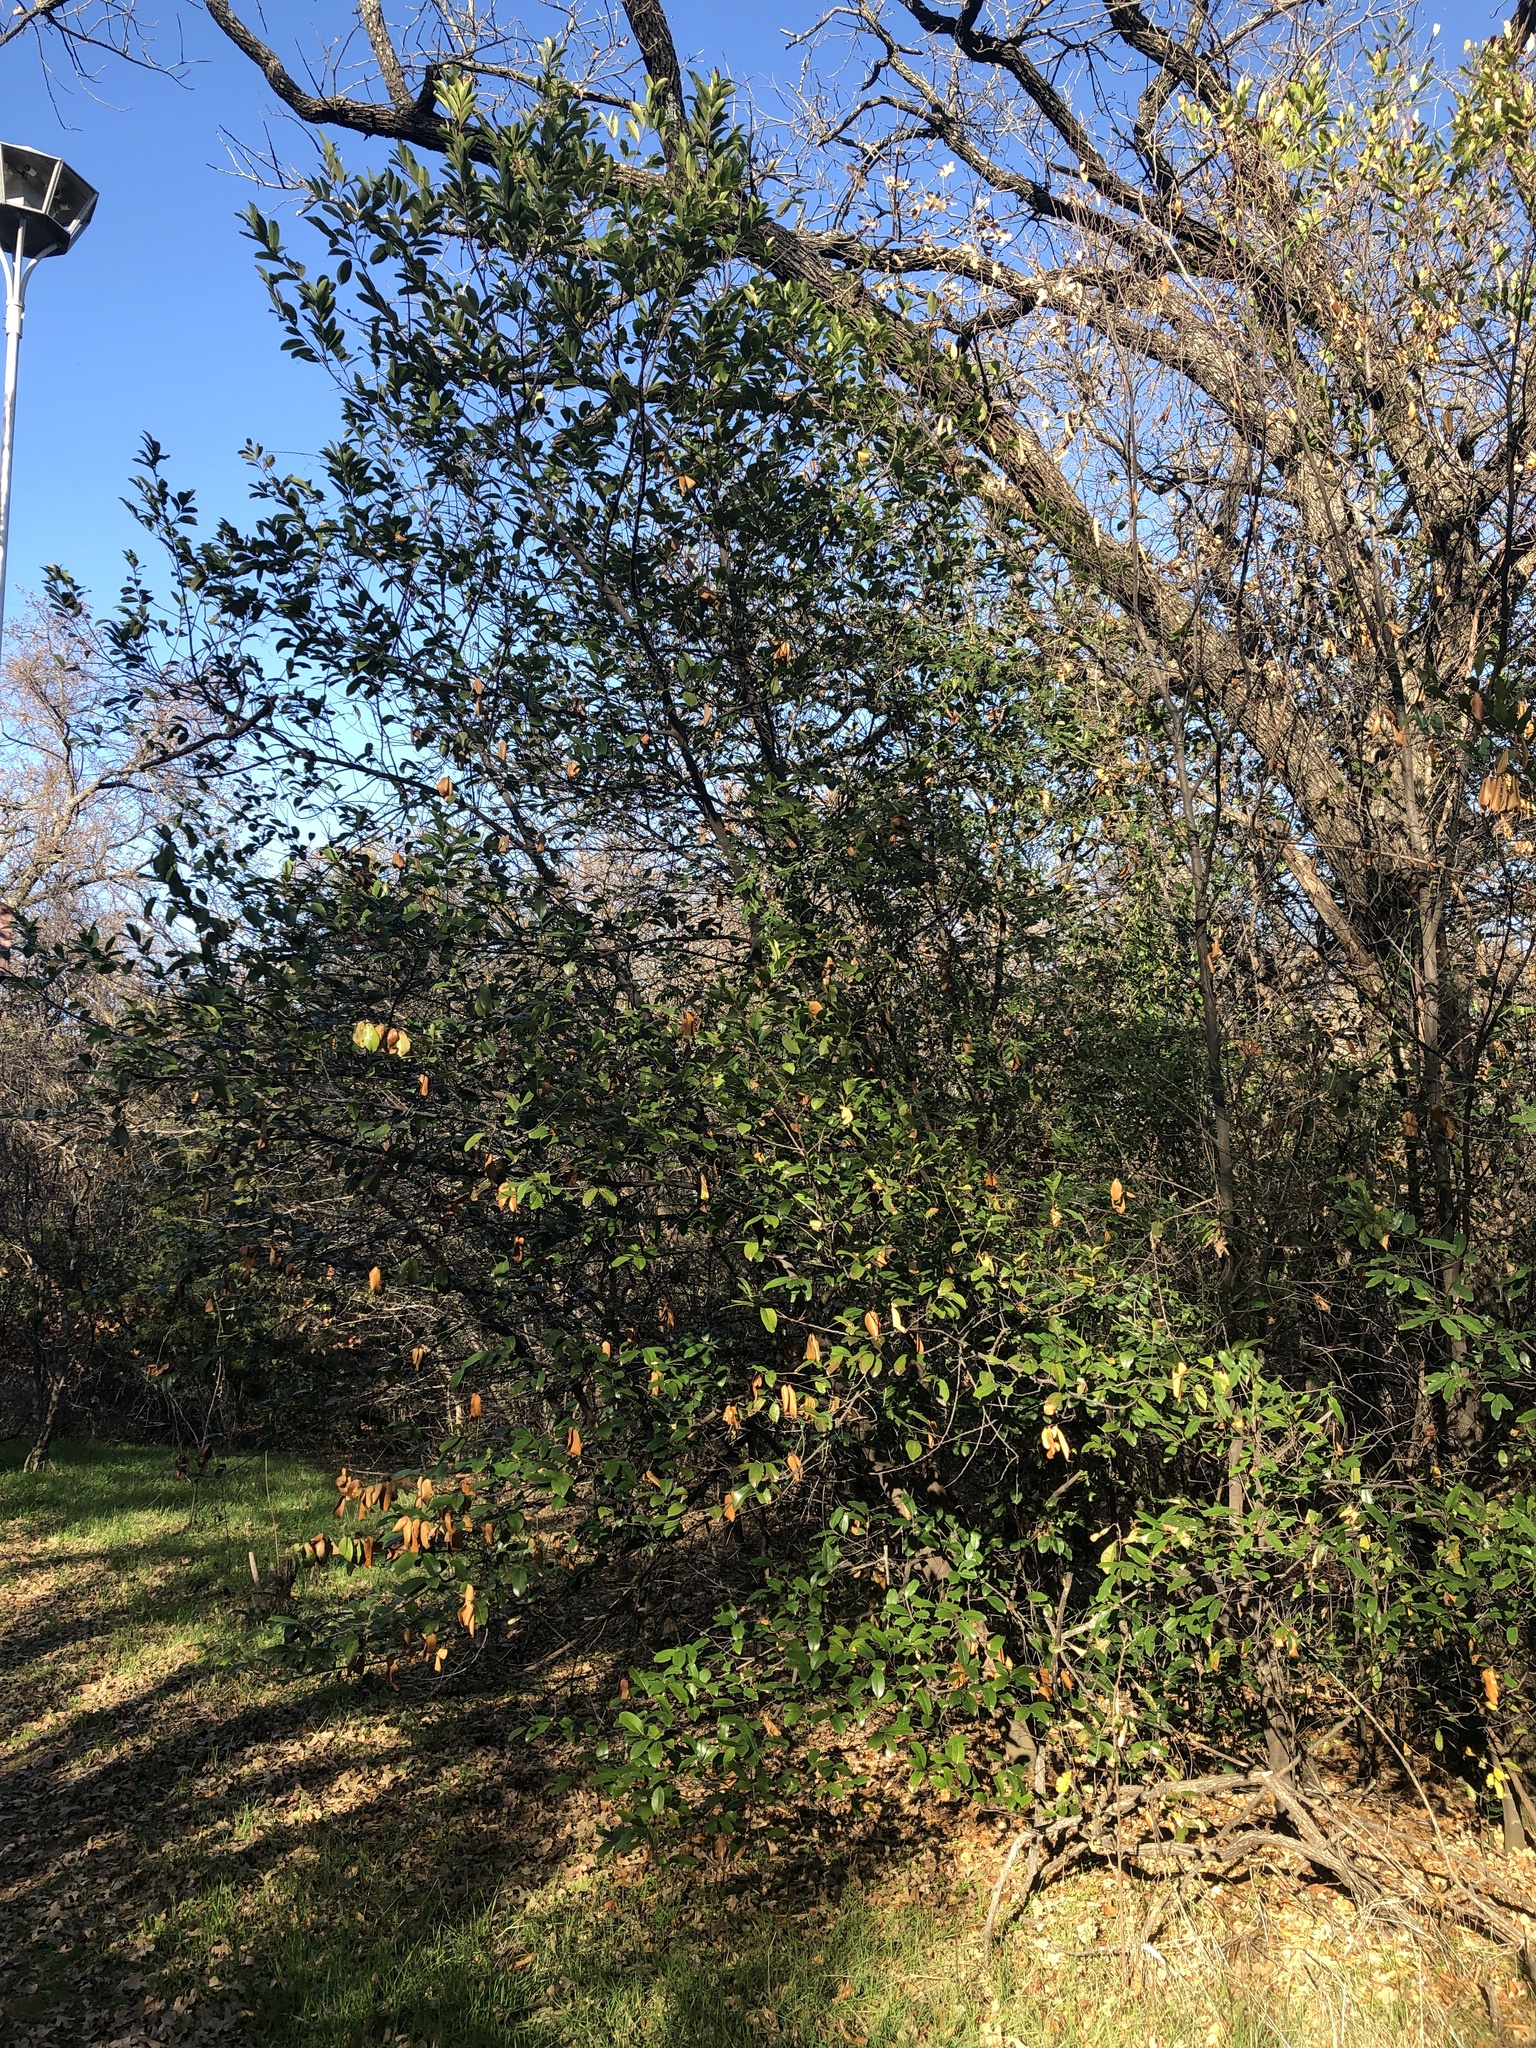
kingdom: Plantae
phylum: Tracheophyta
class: Magnoliopsida
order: Rosales
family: Rosaceae
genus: Prunus
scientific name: Prunus caroliniana
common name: Carolina laurel cherry
